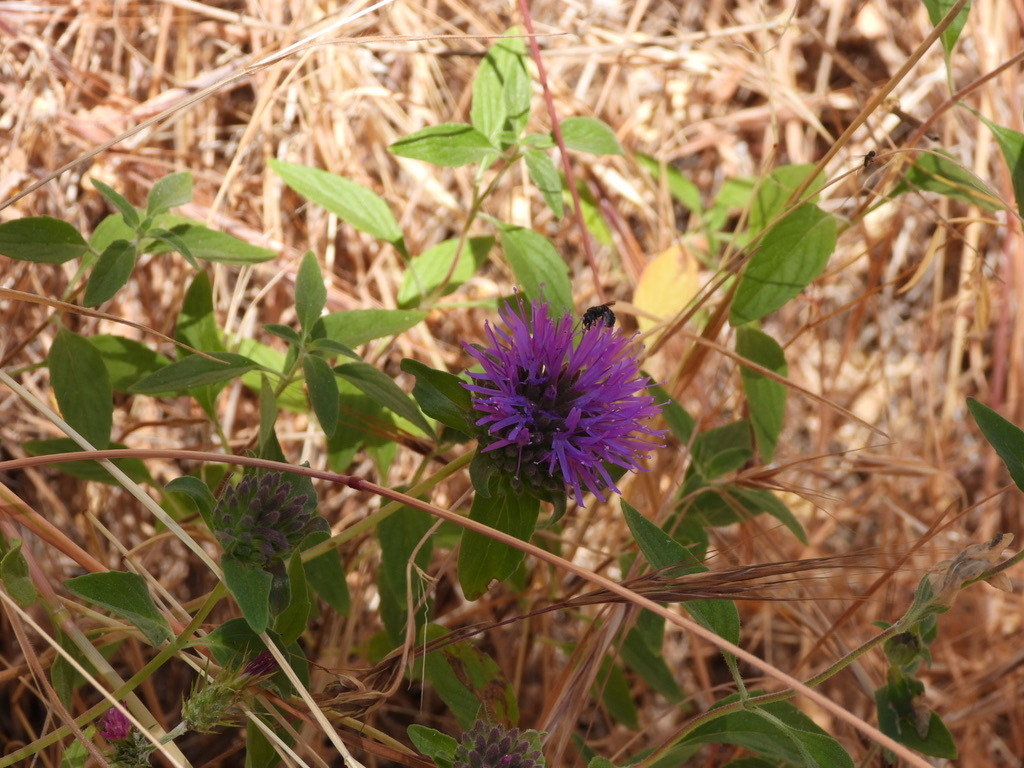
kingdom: Plantae
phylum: Tracheophyta
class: Magnoliopsida
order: Lamiales
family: Lamiaceae
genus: Monardella
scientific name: Monardella odoratissima
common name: Pacific monardella
